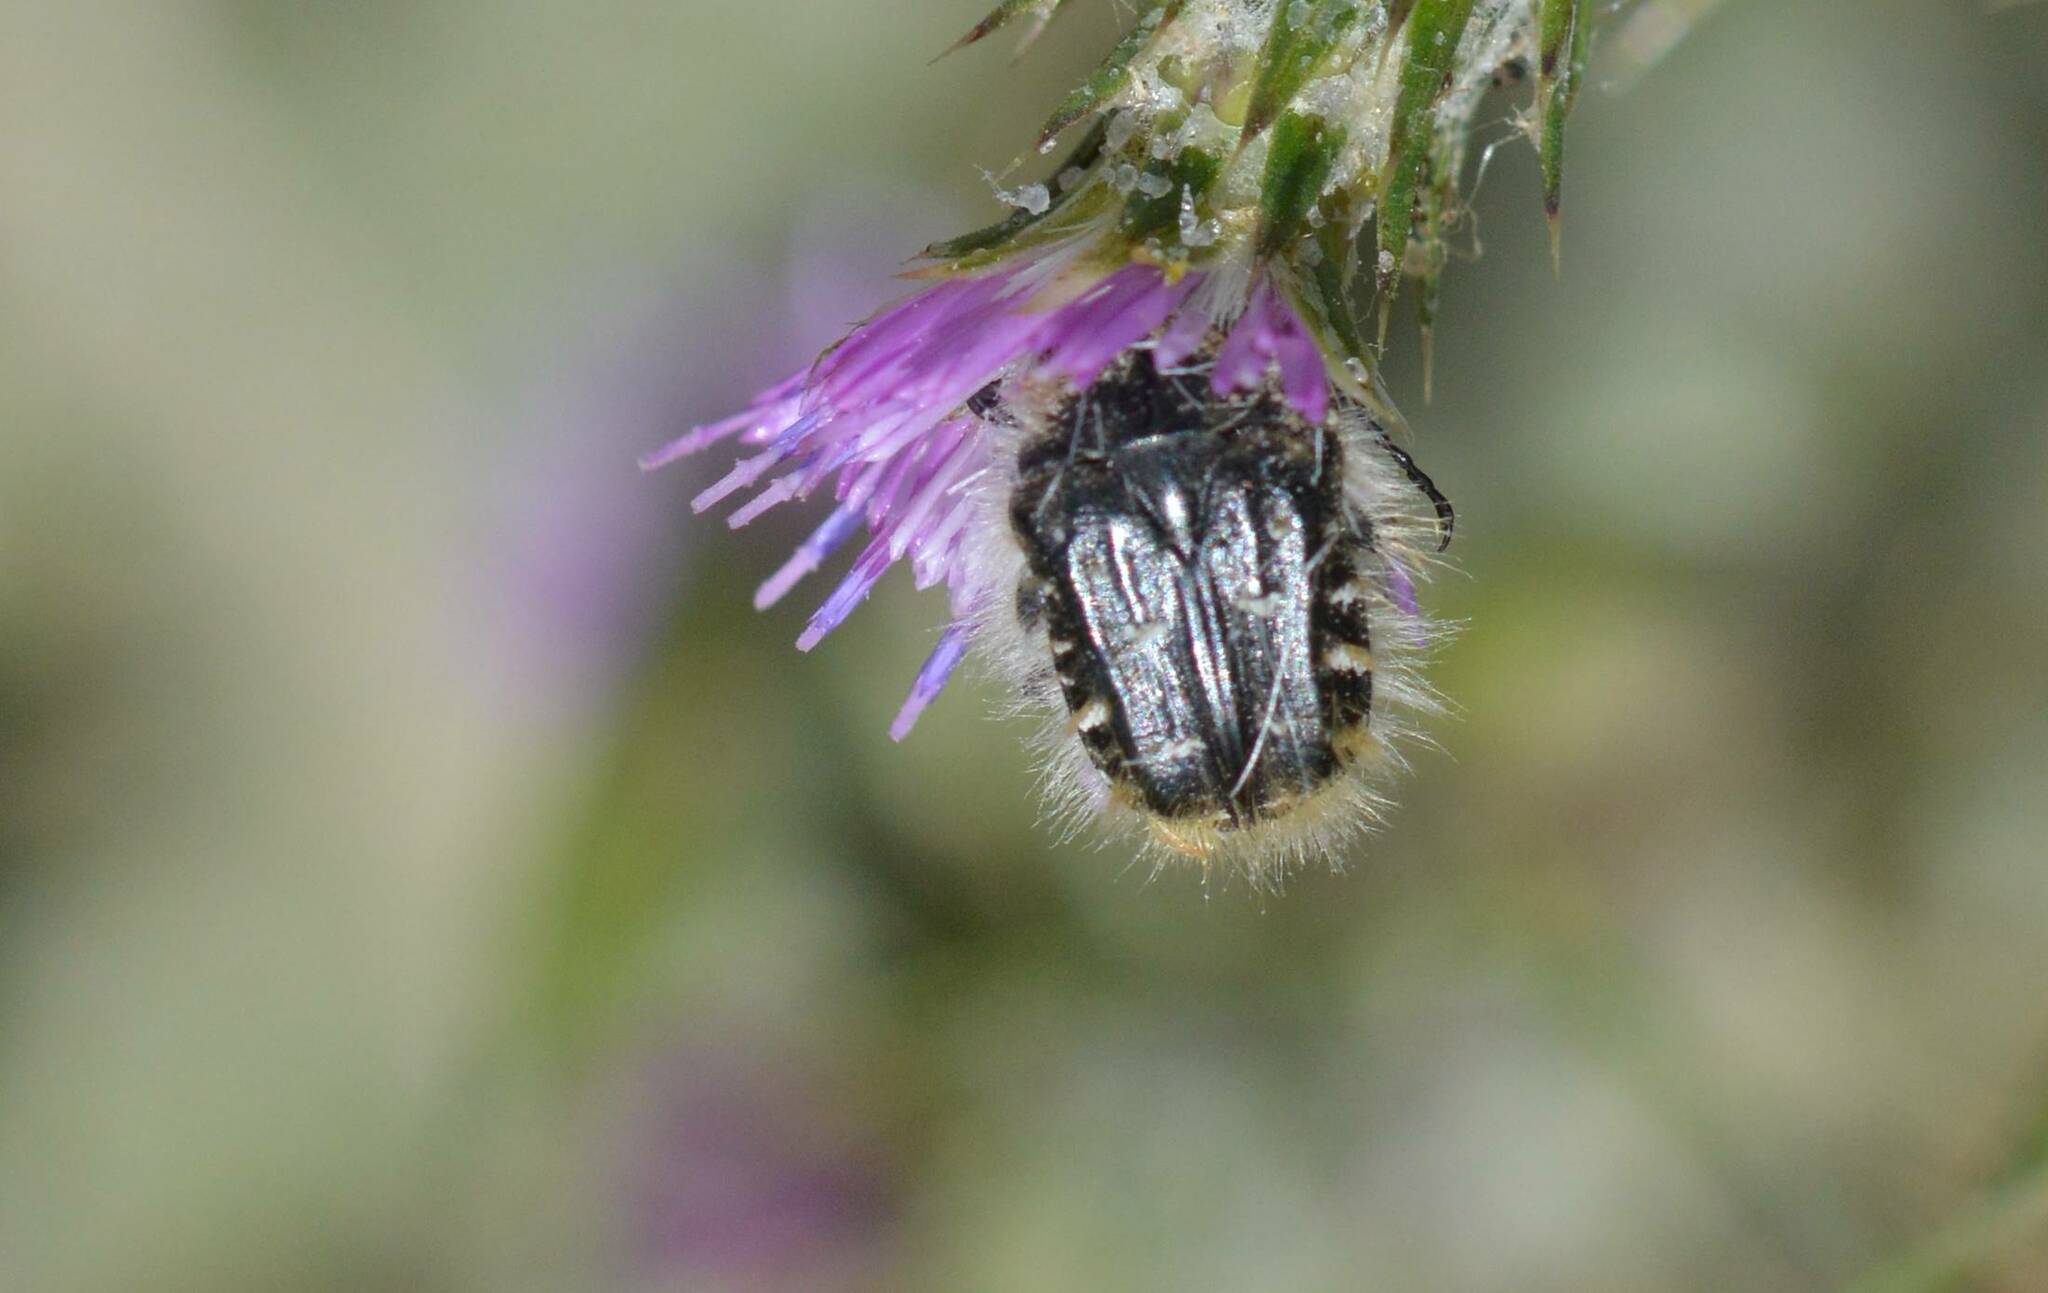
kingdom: Animalia
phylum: Arthropoda
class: Insecta
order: Coleoptera
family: Scarabaeidae
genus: Tropinota
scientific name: Tropinota squalida
